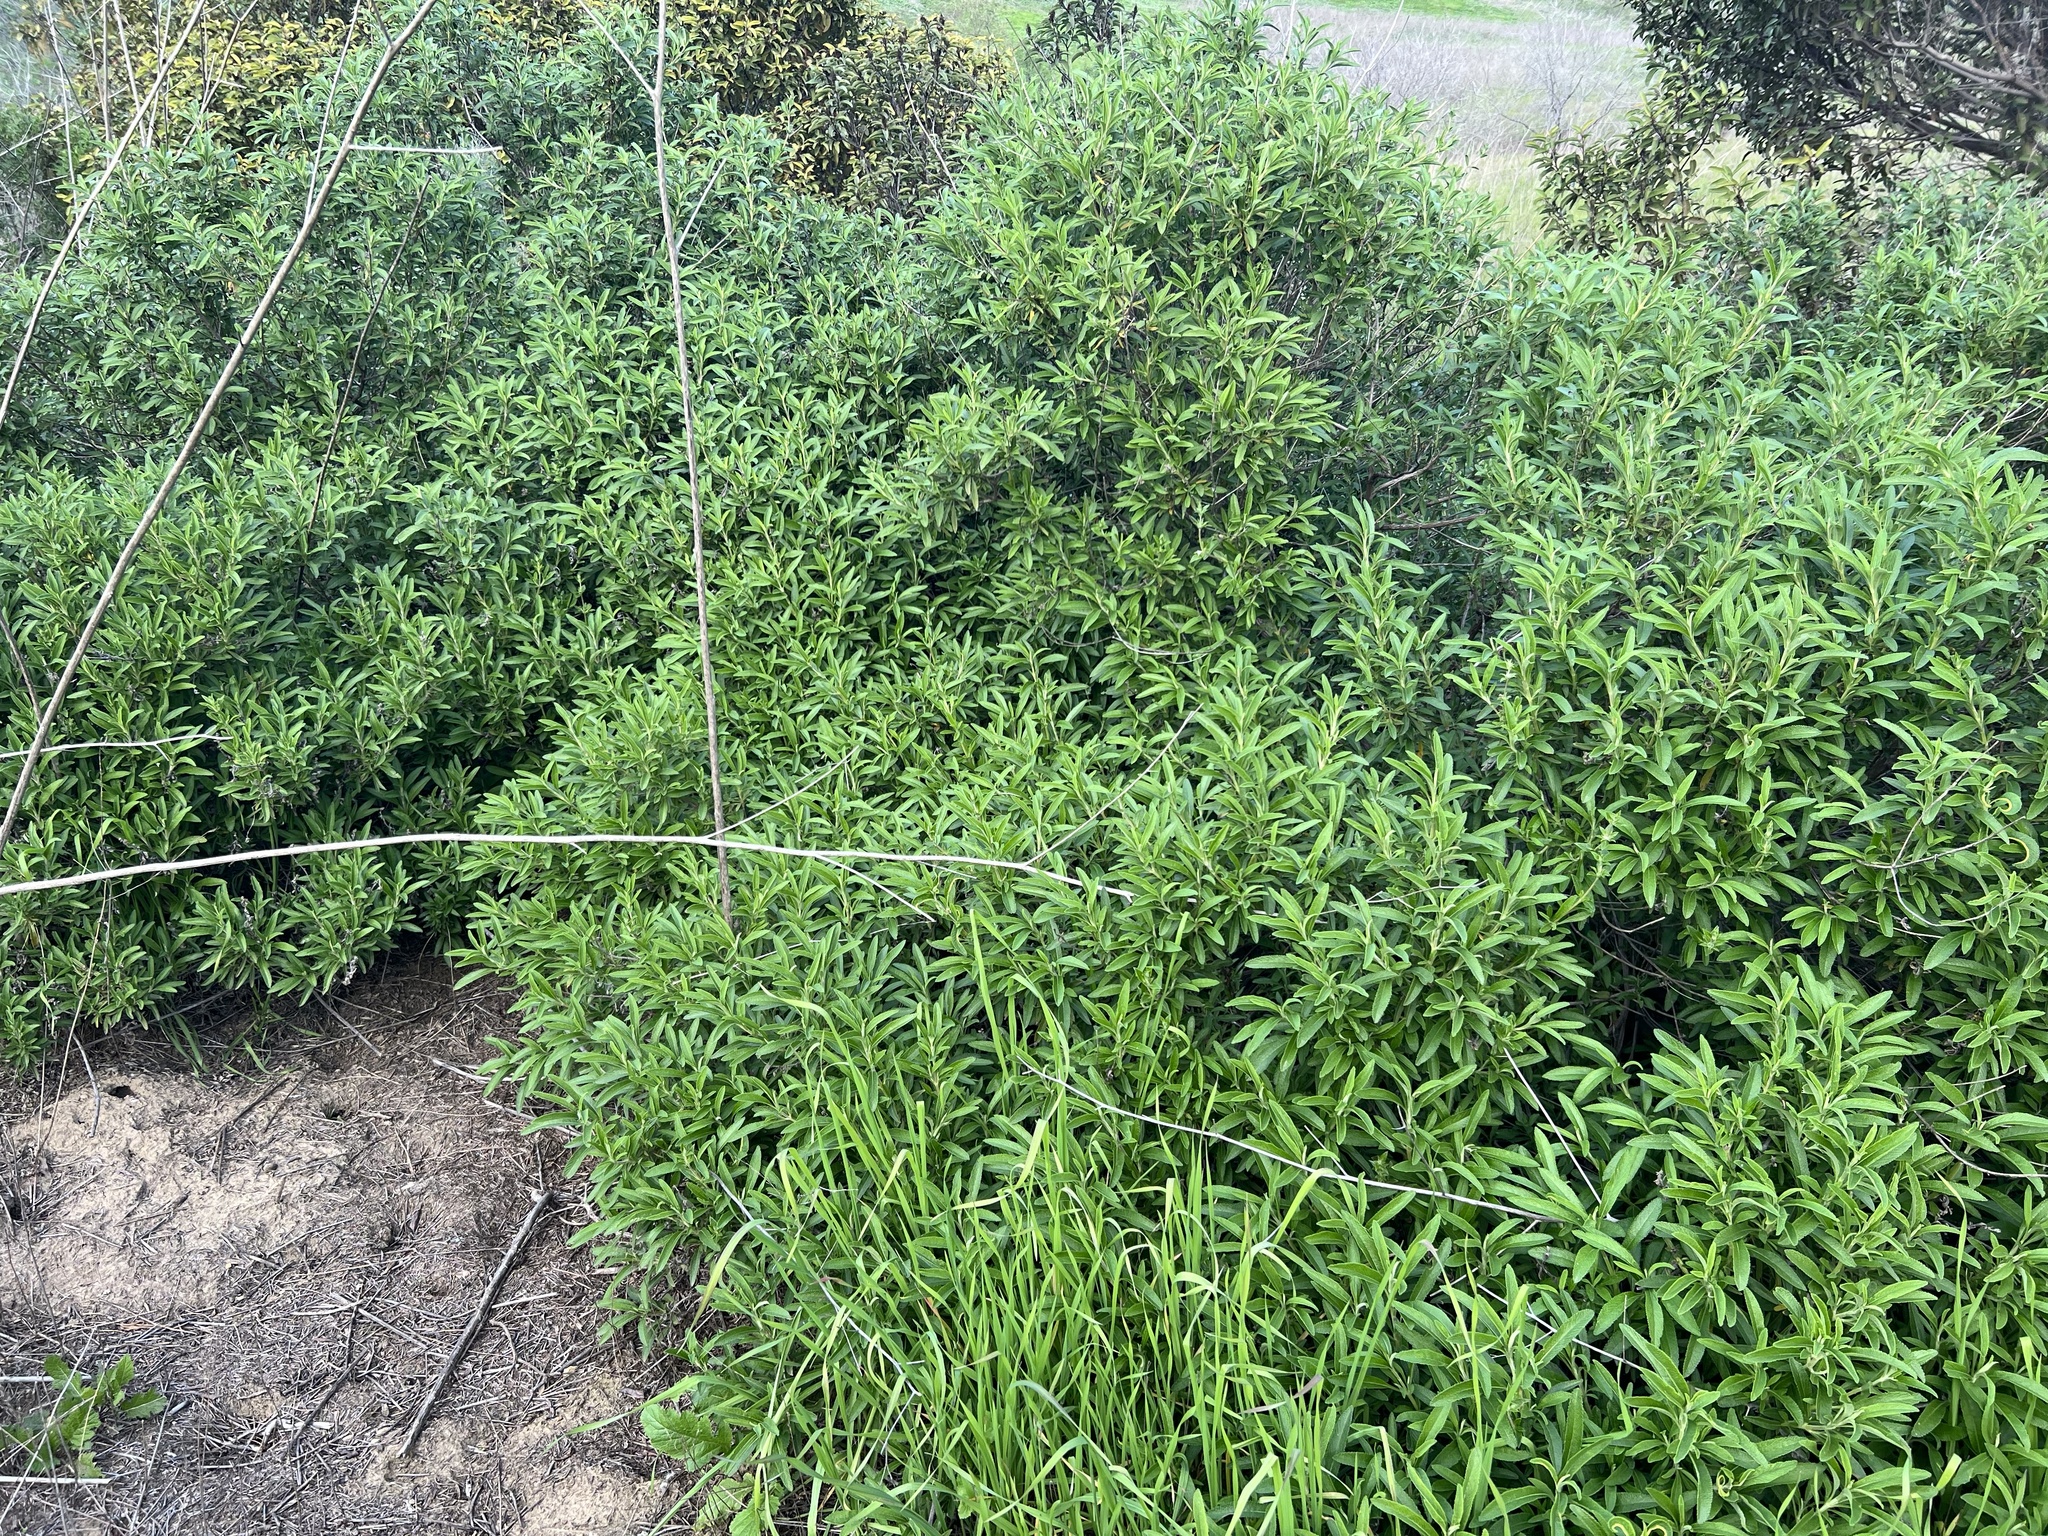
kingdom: Plantae
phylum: Tracheophyta
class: Magnoliopsida
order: Lamiales
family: Lamiaceae
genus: Salvia
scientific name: Salvia mellifera
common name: Black sage
